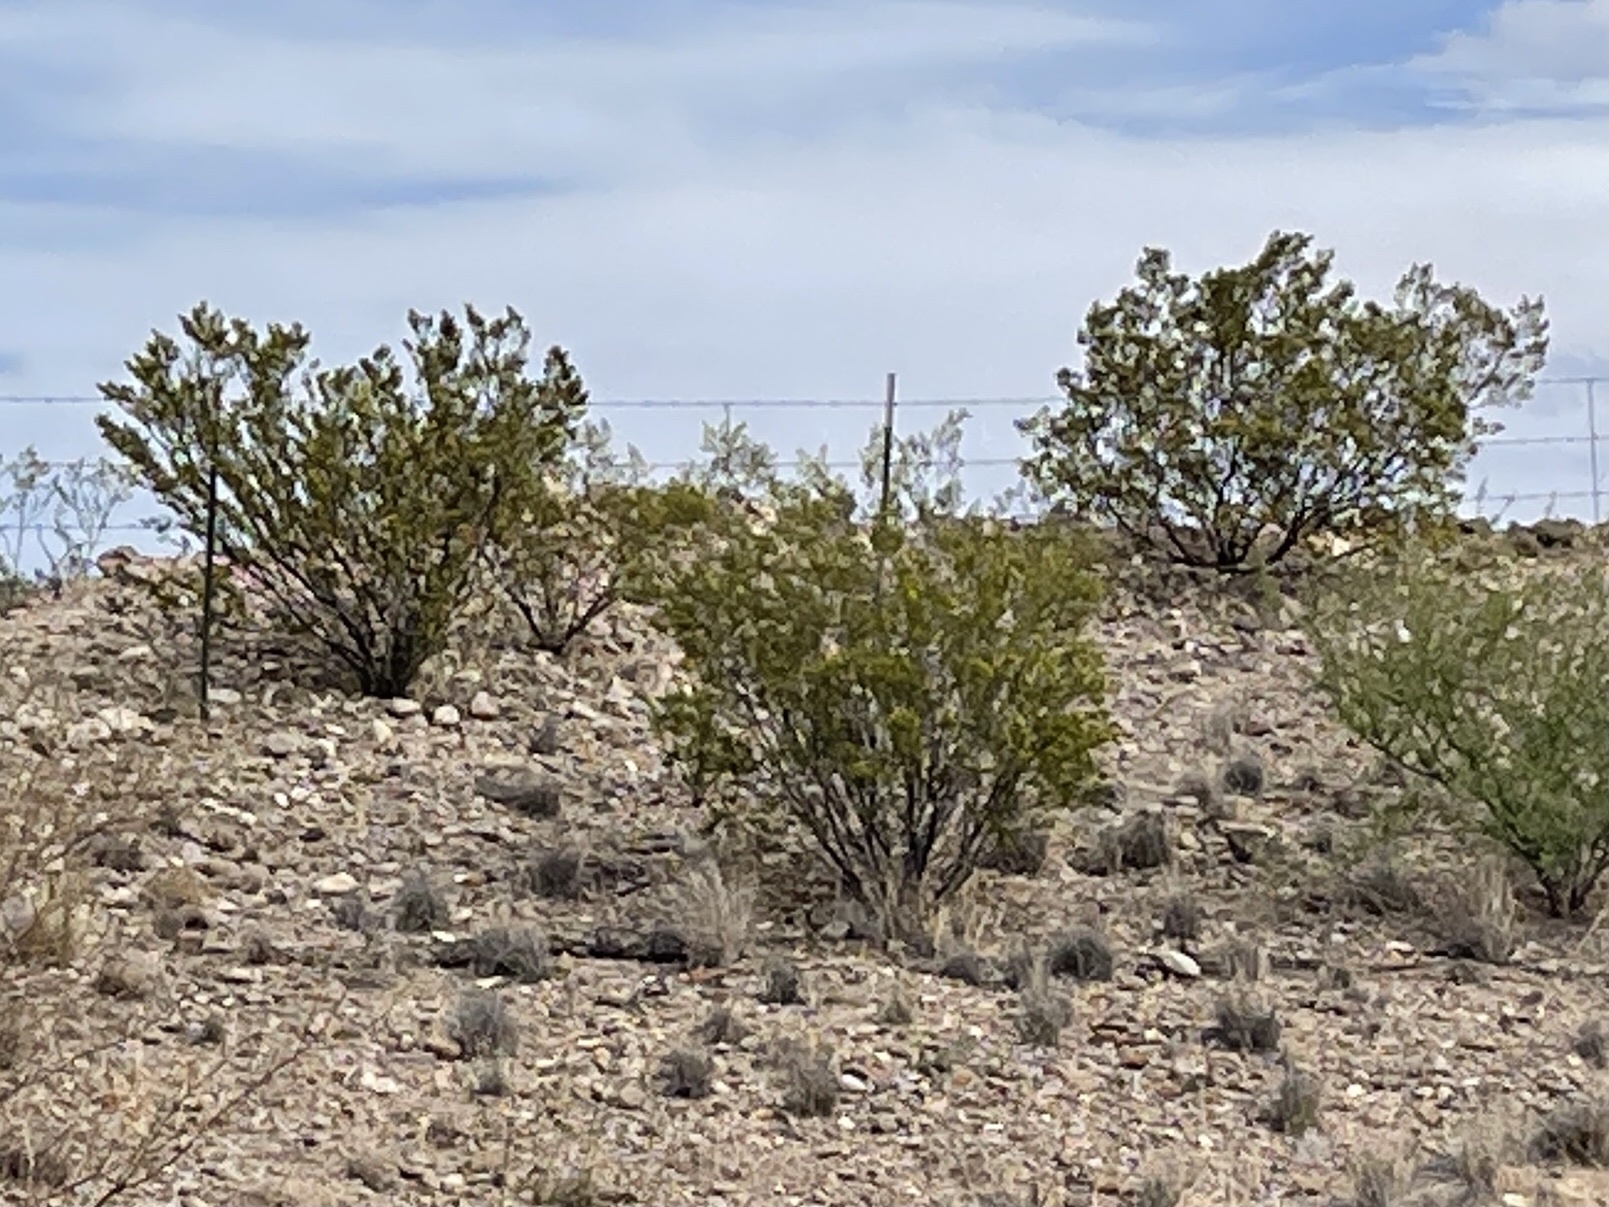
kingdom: Plantae
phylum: Tracheophyta
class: Magnoliopsida
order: Zygophyllales
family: Zygophyllaceae
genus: Larrea
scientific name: Larrea tridentata
